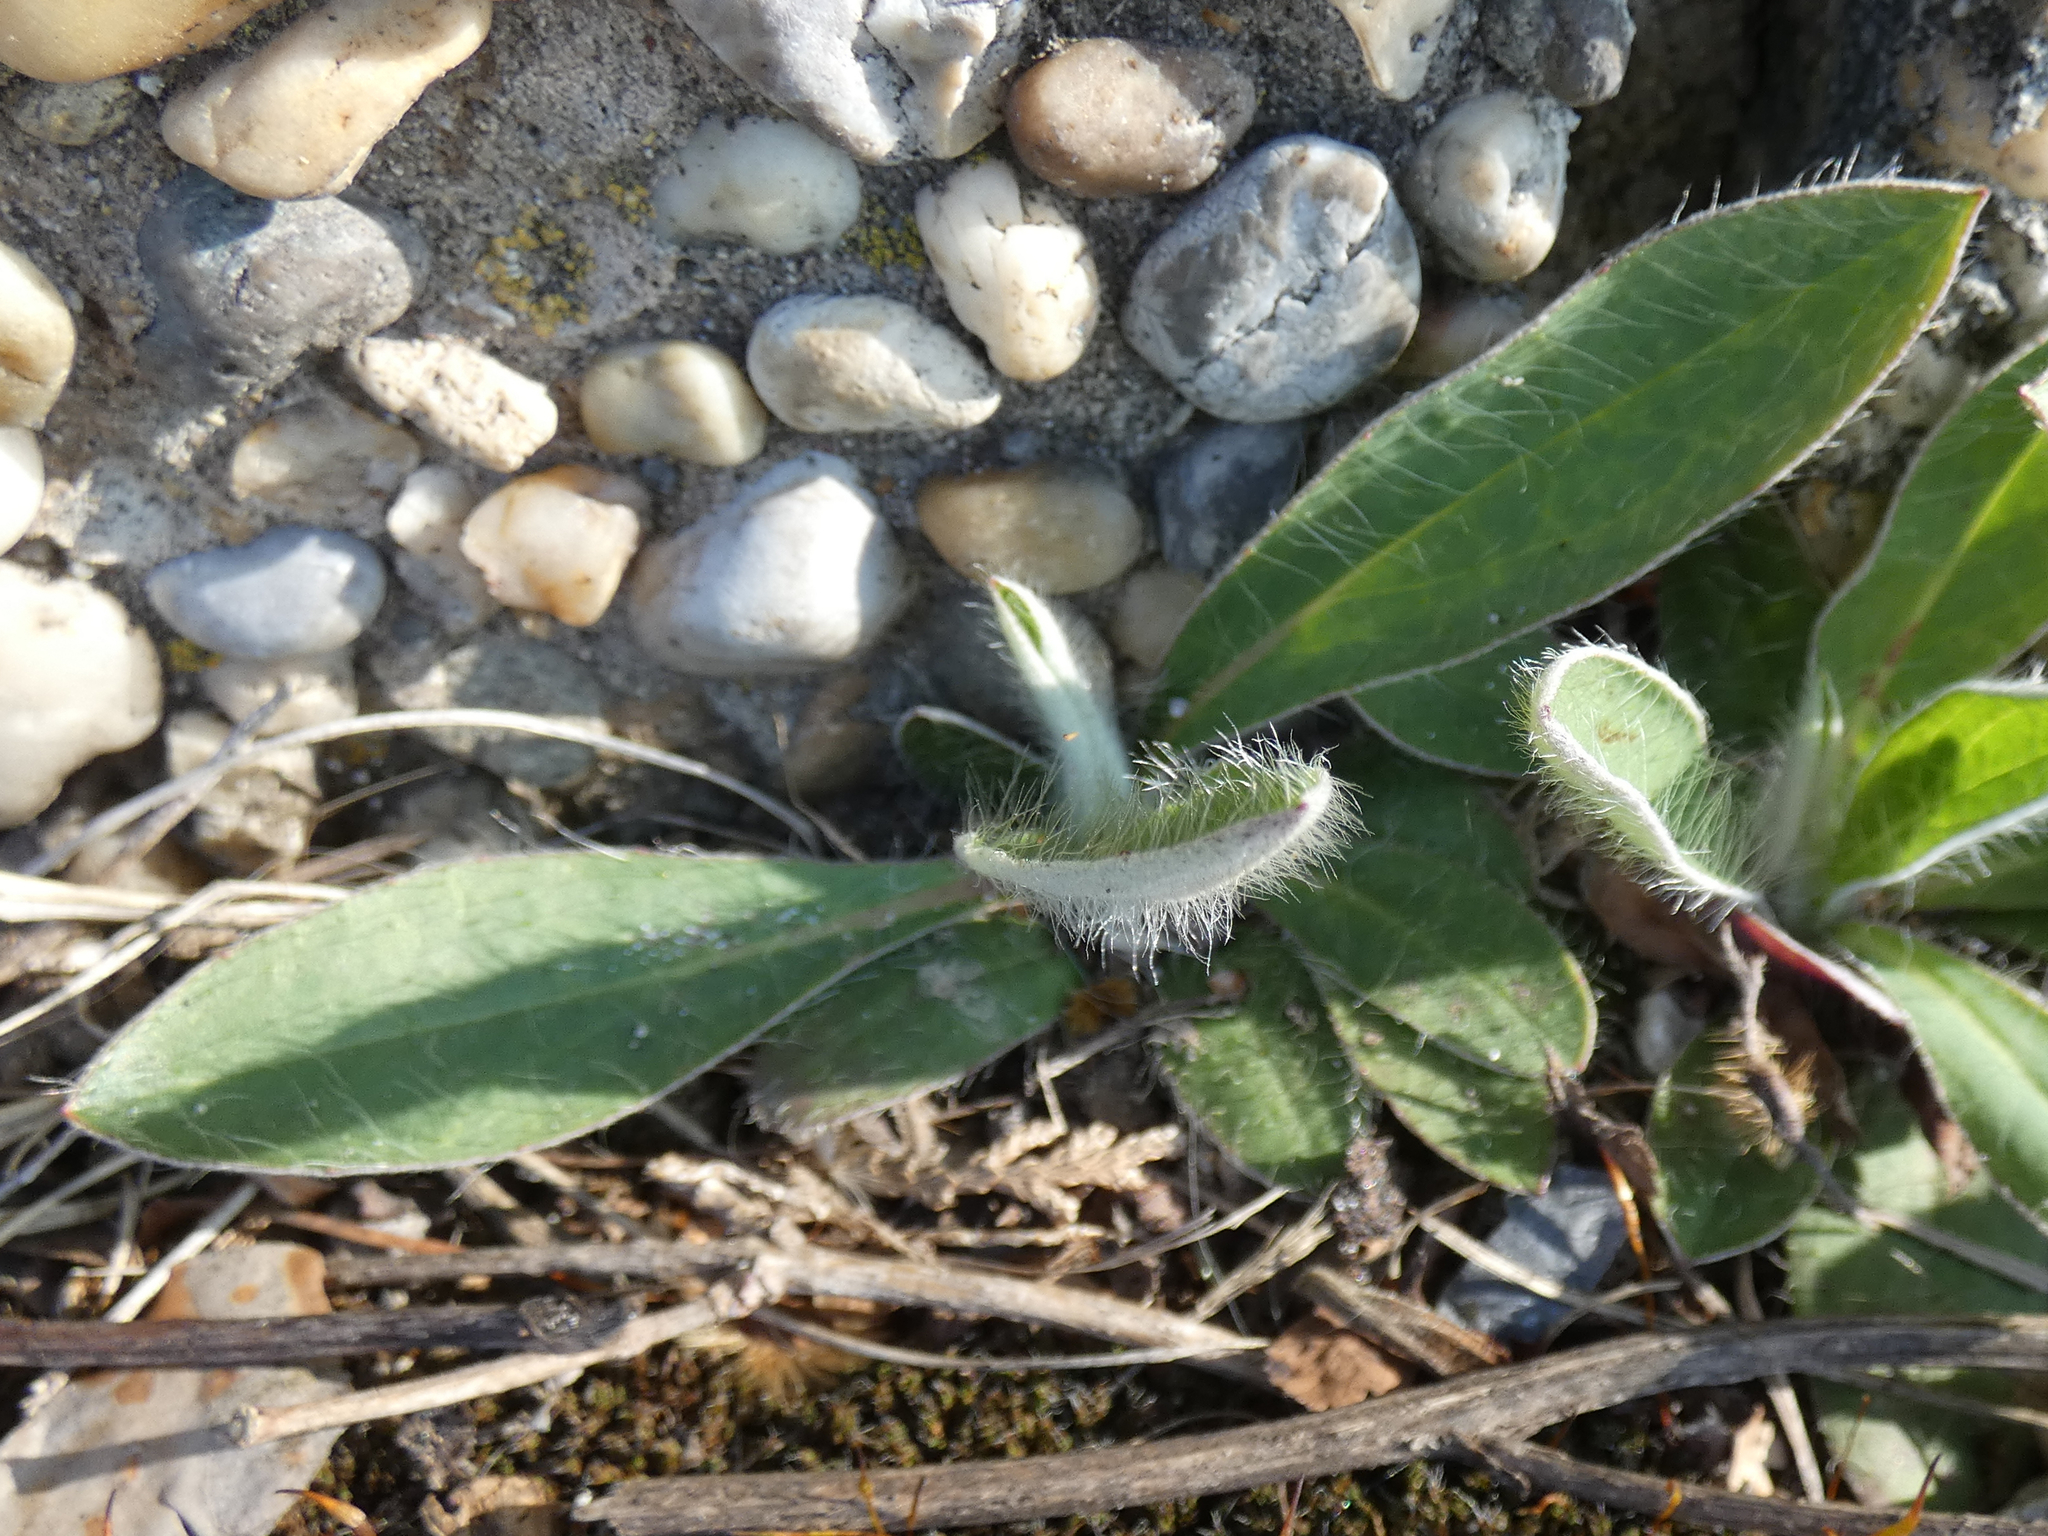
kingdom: Plantae
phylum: Tracheophyta
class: Magnoliopsida
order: Asterales
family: Asteraceae
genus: Pilosella
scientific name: Pilosella officinarum
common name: Mouse-ear hawkweed
